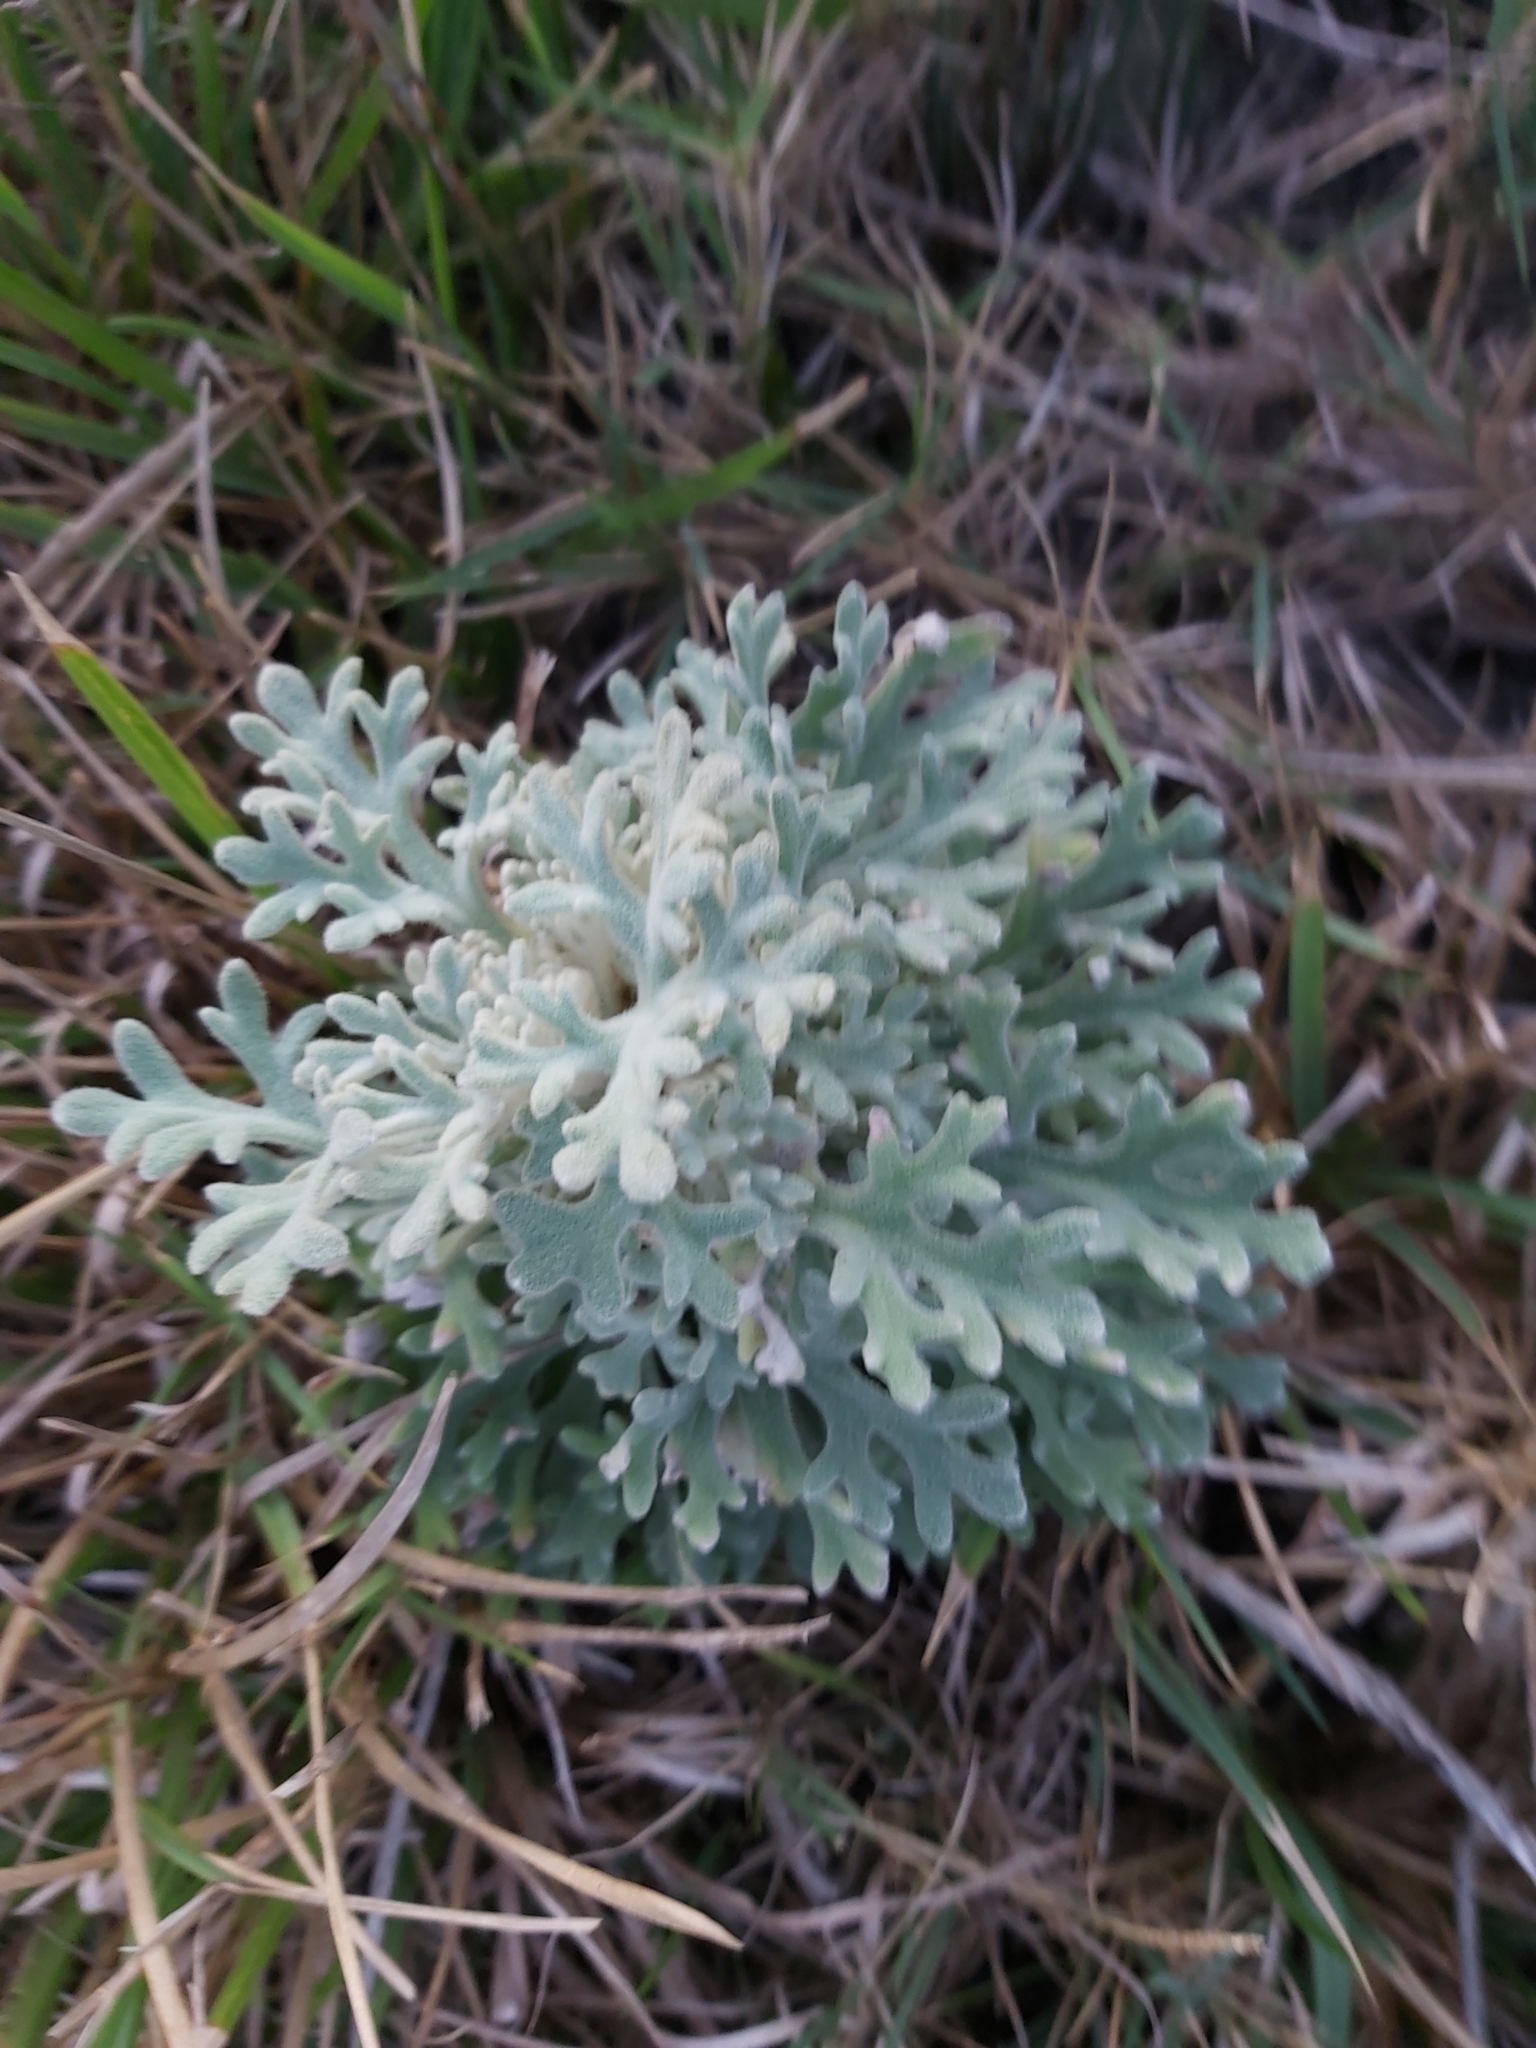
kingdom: Plantae
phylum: Tracheophyta
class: Magnoliopsida
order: Apiales
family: Apiaceae
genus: Actinotus
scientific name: Actinotus helianthi
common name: Flannel-flower
